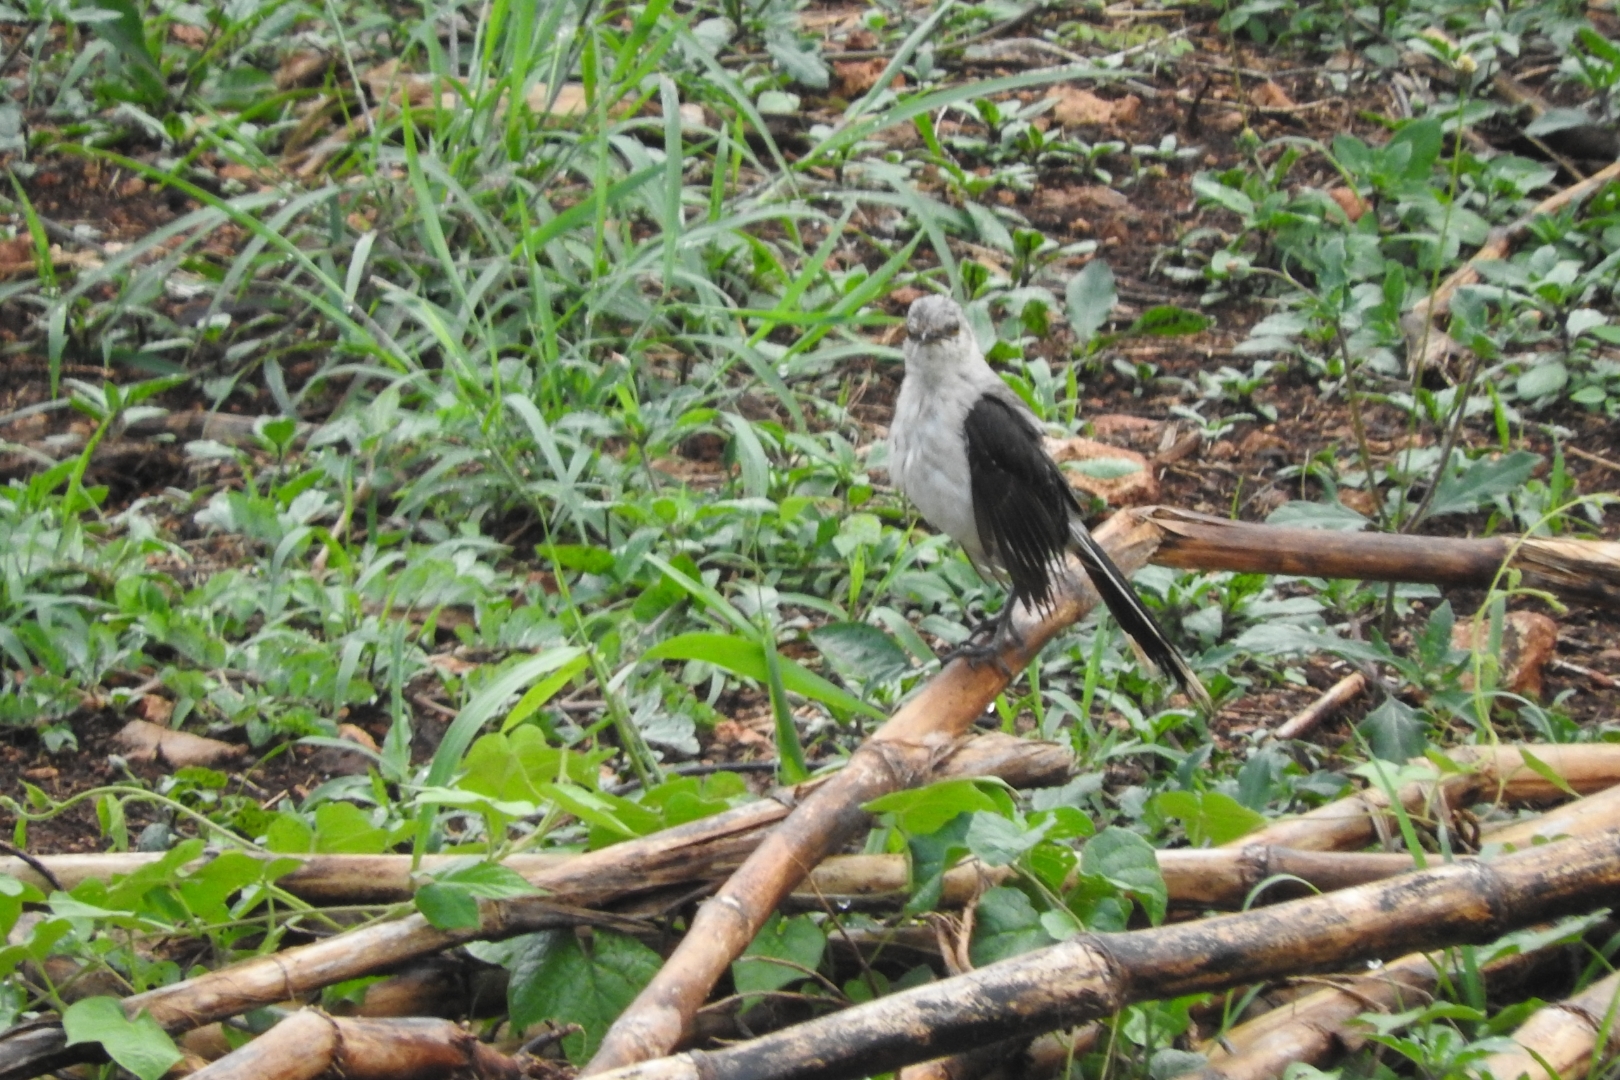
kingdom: Animalia
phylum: Chordata
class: Aves
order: Passeriformes
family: Mimidae
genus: Mimus
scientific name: Mimus gilvus
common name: Tropical mockingbird
